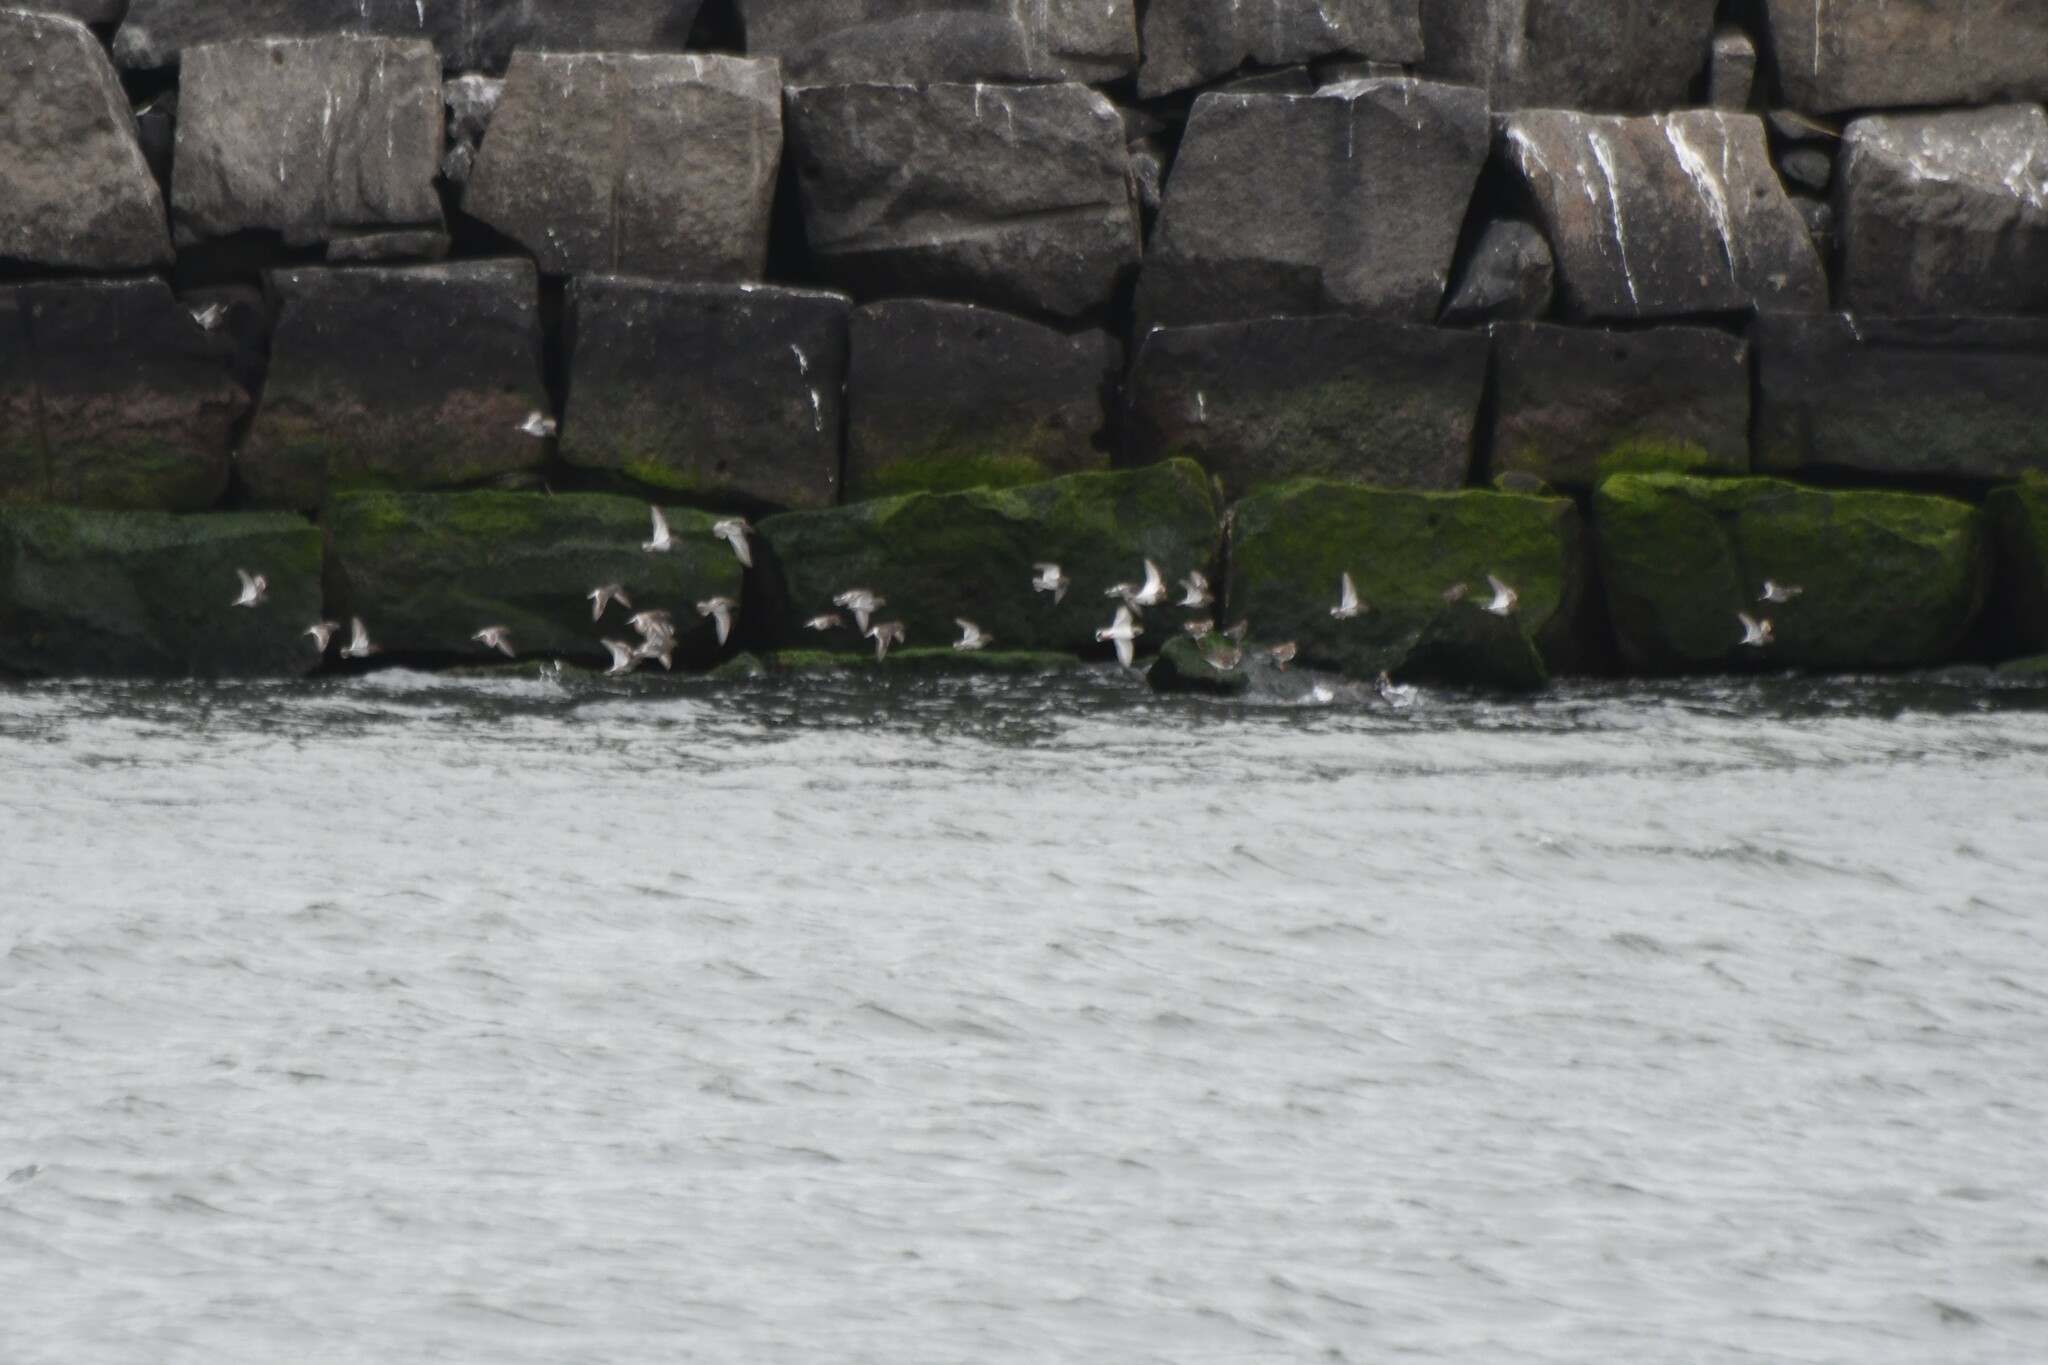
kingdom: Animalia
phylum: Chordata
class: Aves
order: Charadriiformes
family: Scolopacidae
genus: Arenaria
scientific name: Arenaria interpres
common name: Ruddy turnstone
